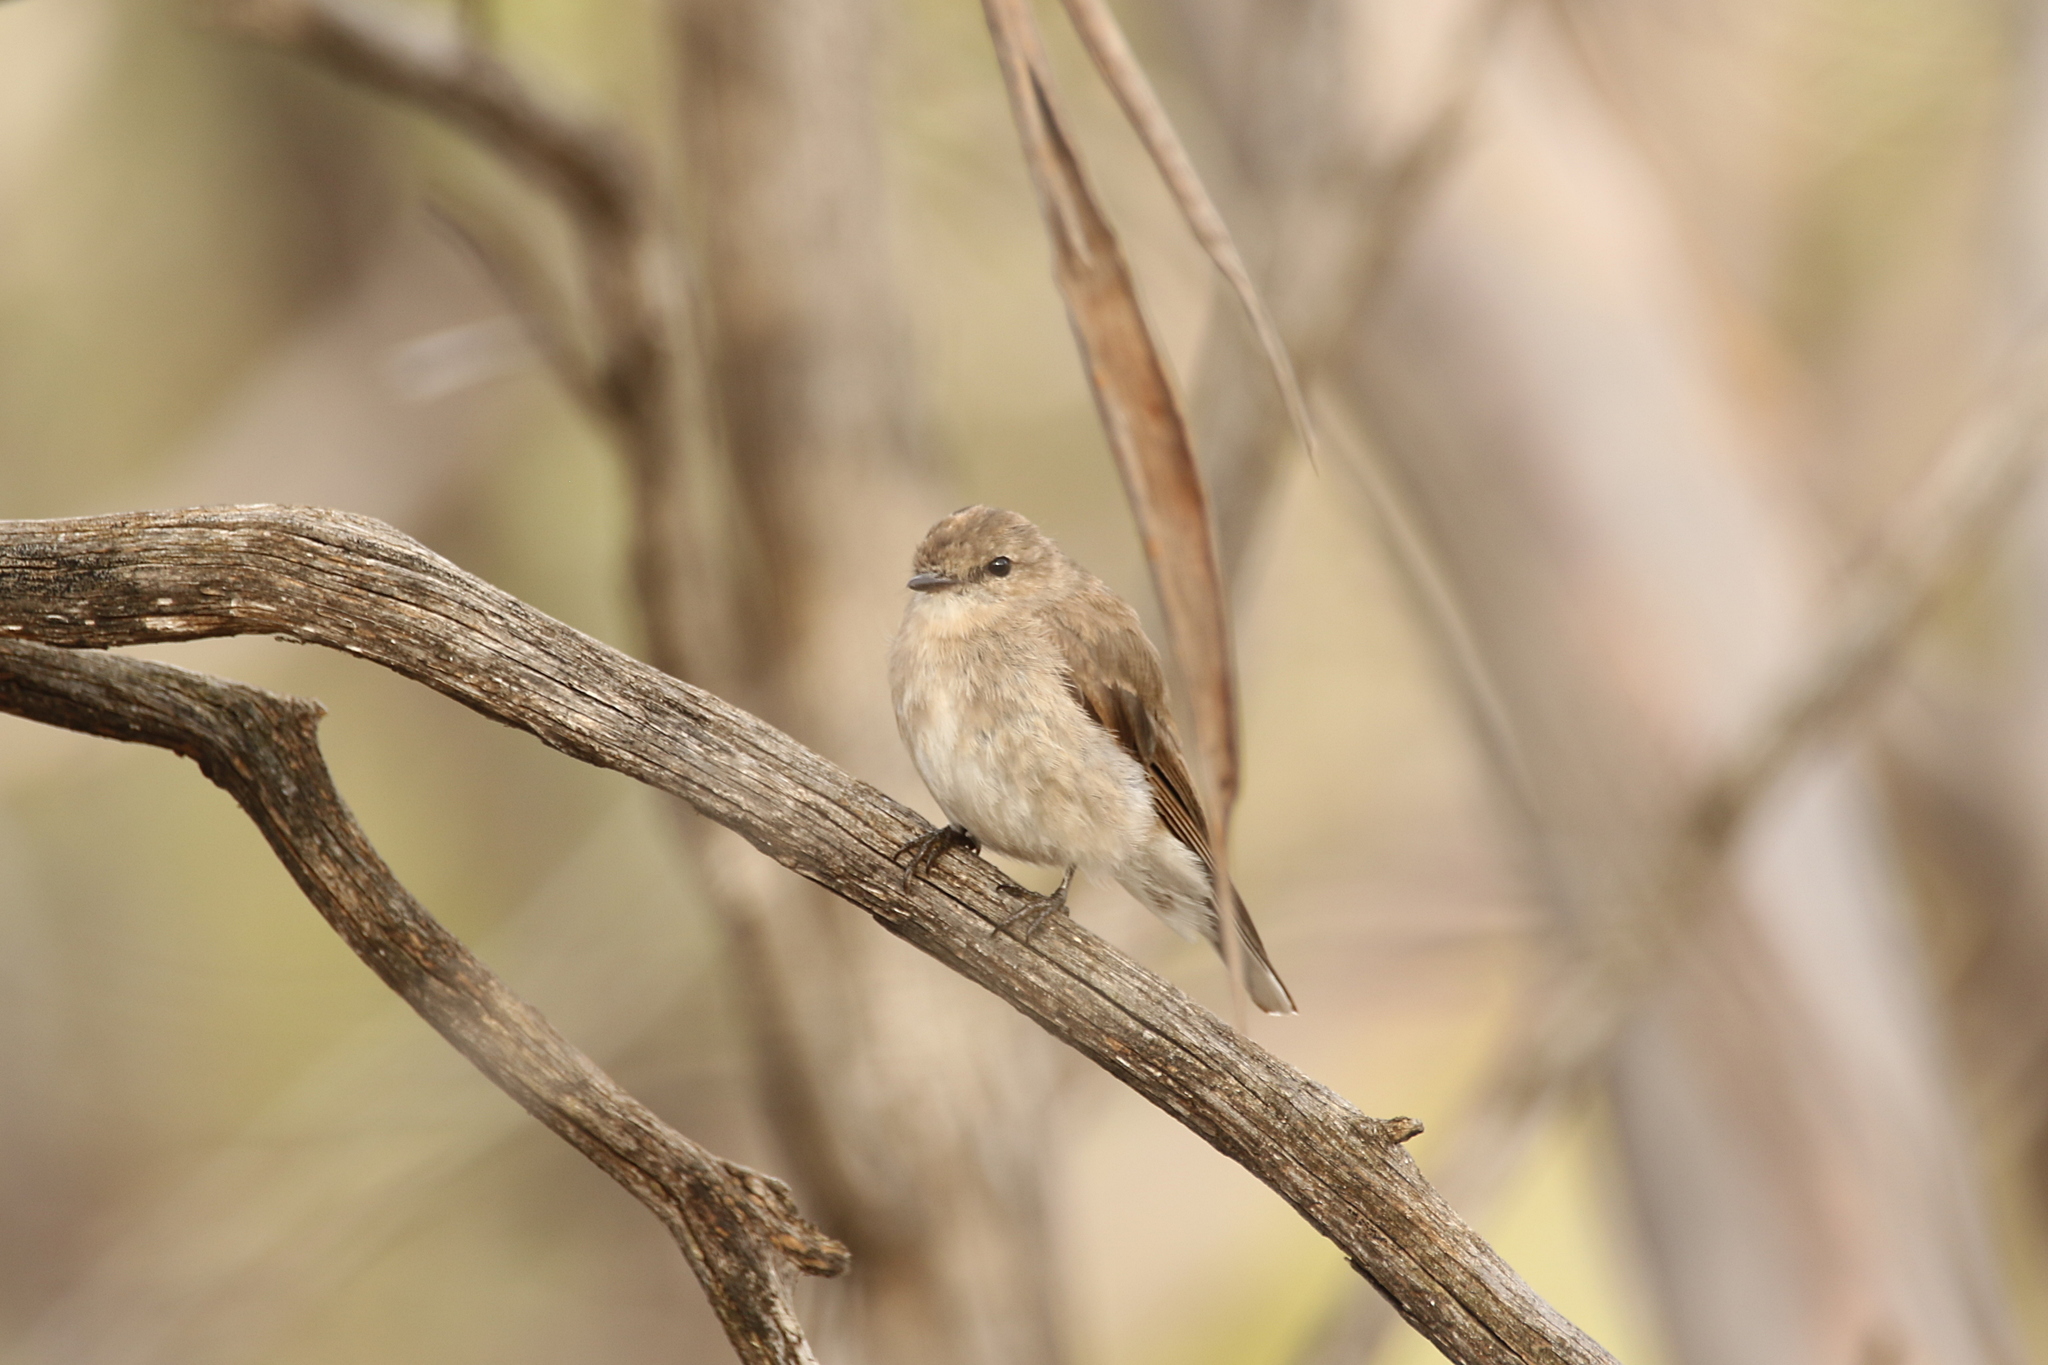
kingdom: Animalia
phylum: Chordata
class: Aves
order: Passeriformes
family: Petroicidae
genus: Microeca
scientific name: Microeca fascinans
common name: Jacky winter
